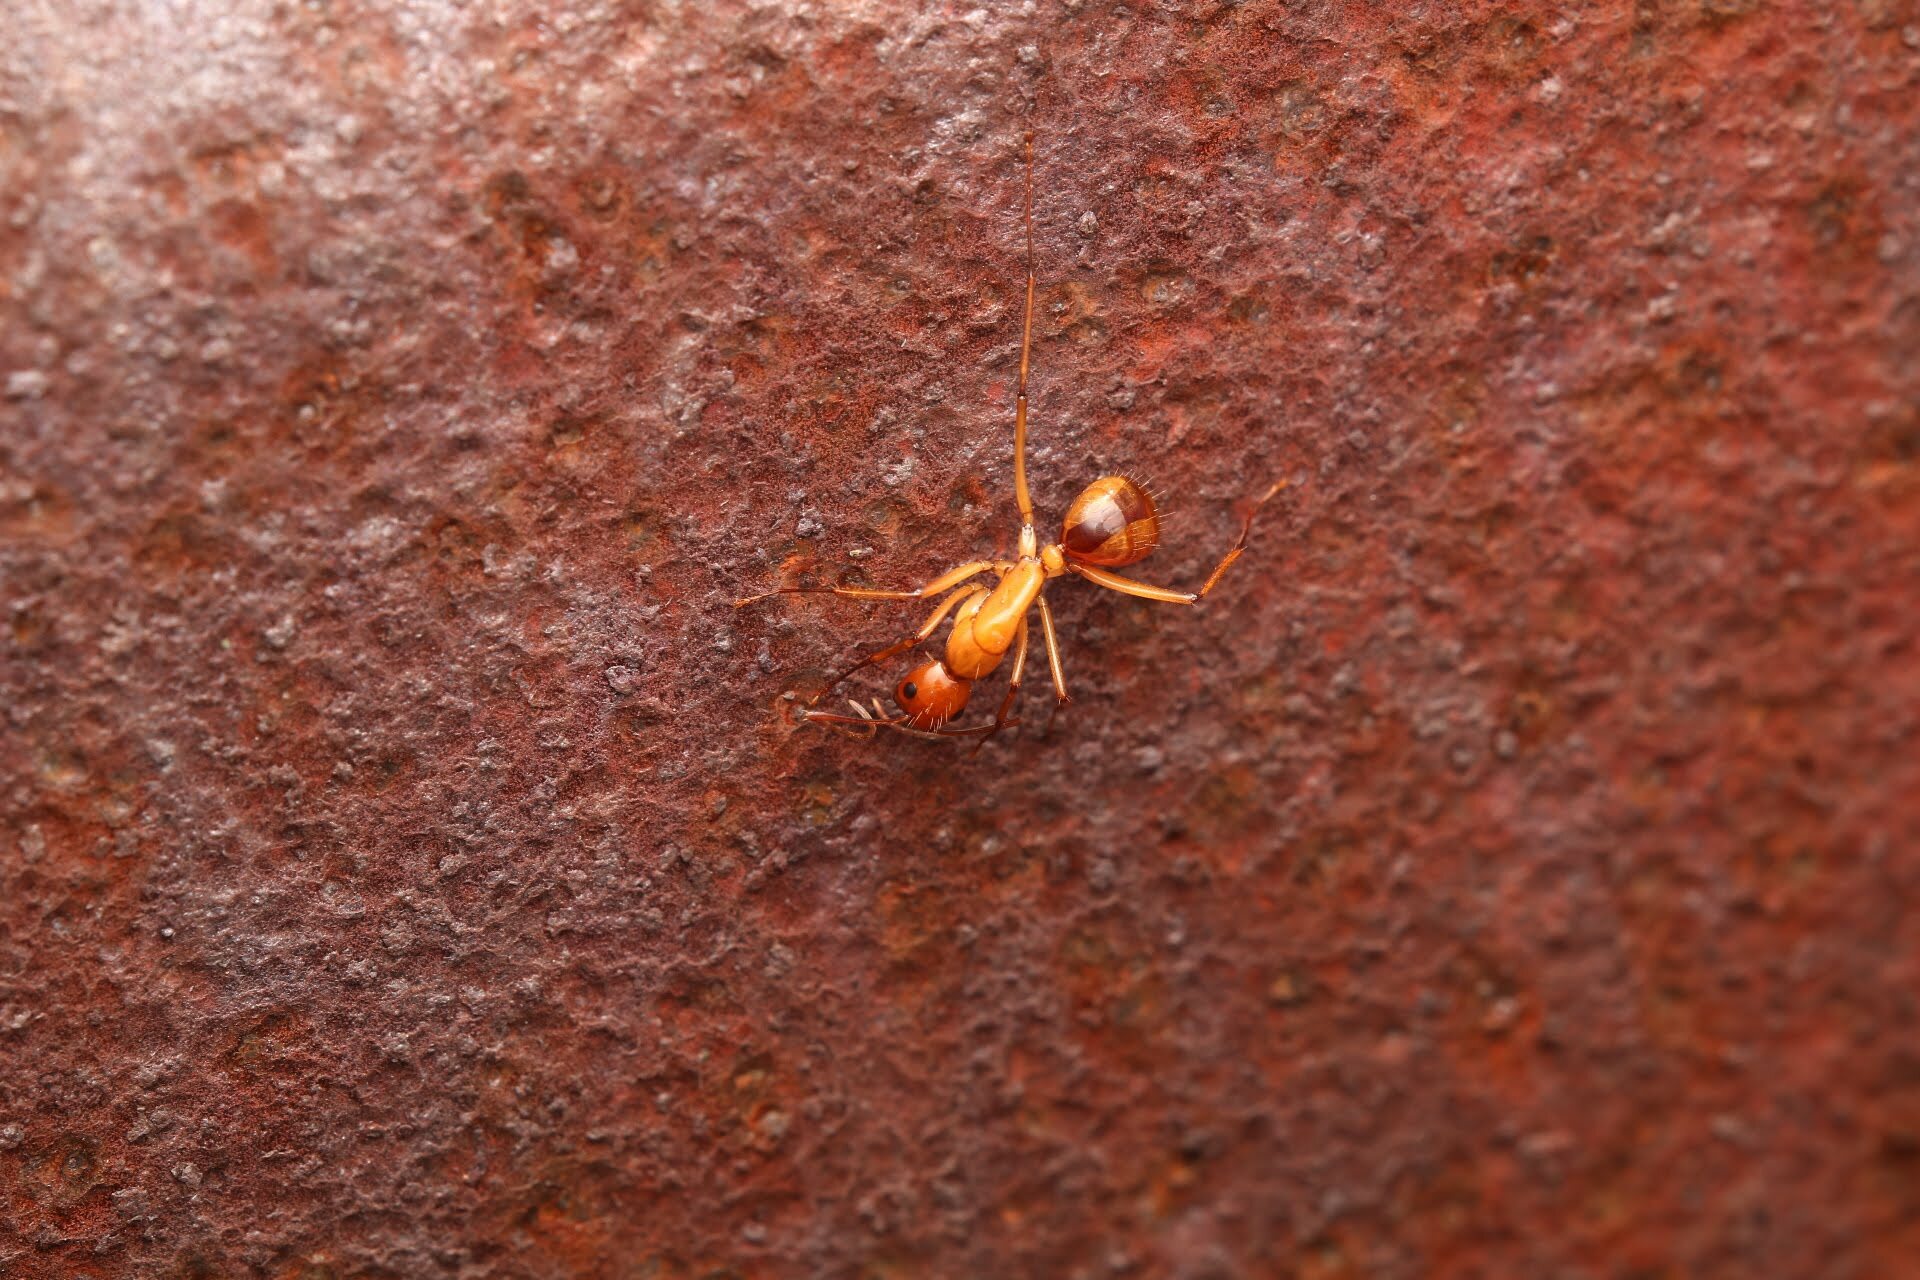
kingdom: Animalia
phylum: Arthropoda
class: Insecta
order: Hymenoptera
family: Formicidae
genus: Camponotus
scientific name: Camponotus castaneus
